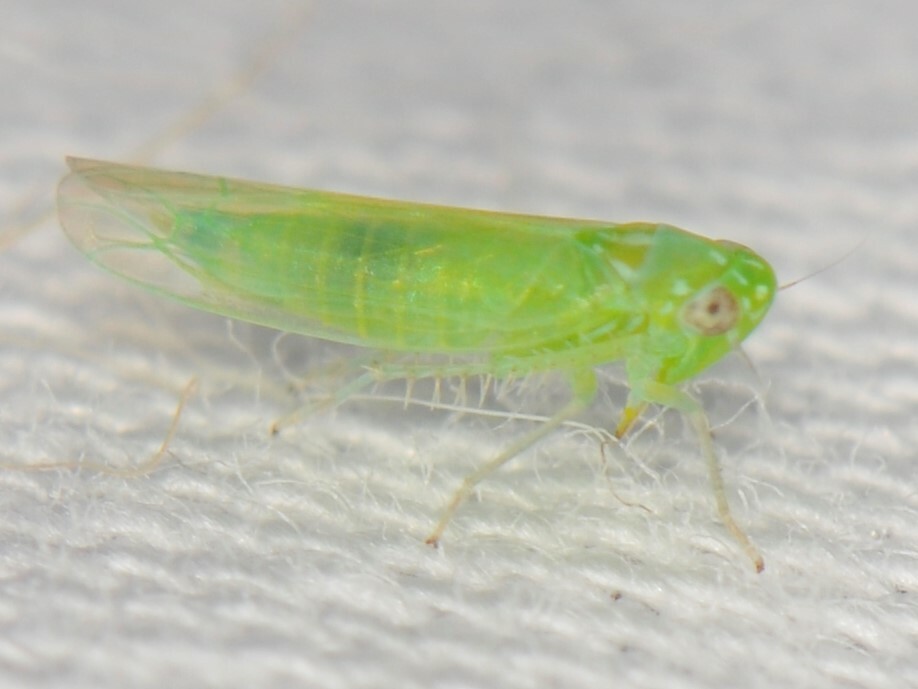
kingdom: Animalia
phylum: Arthropoda
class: Insecta
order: Hemiptera
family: Cicadellidae
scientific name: Cicadellidae
